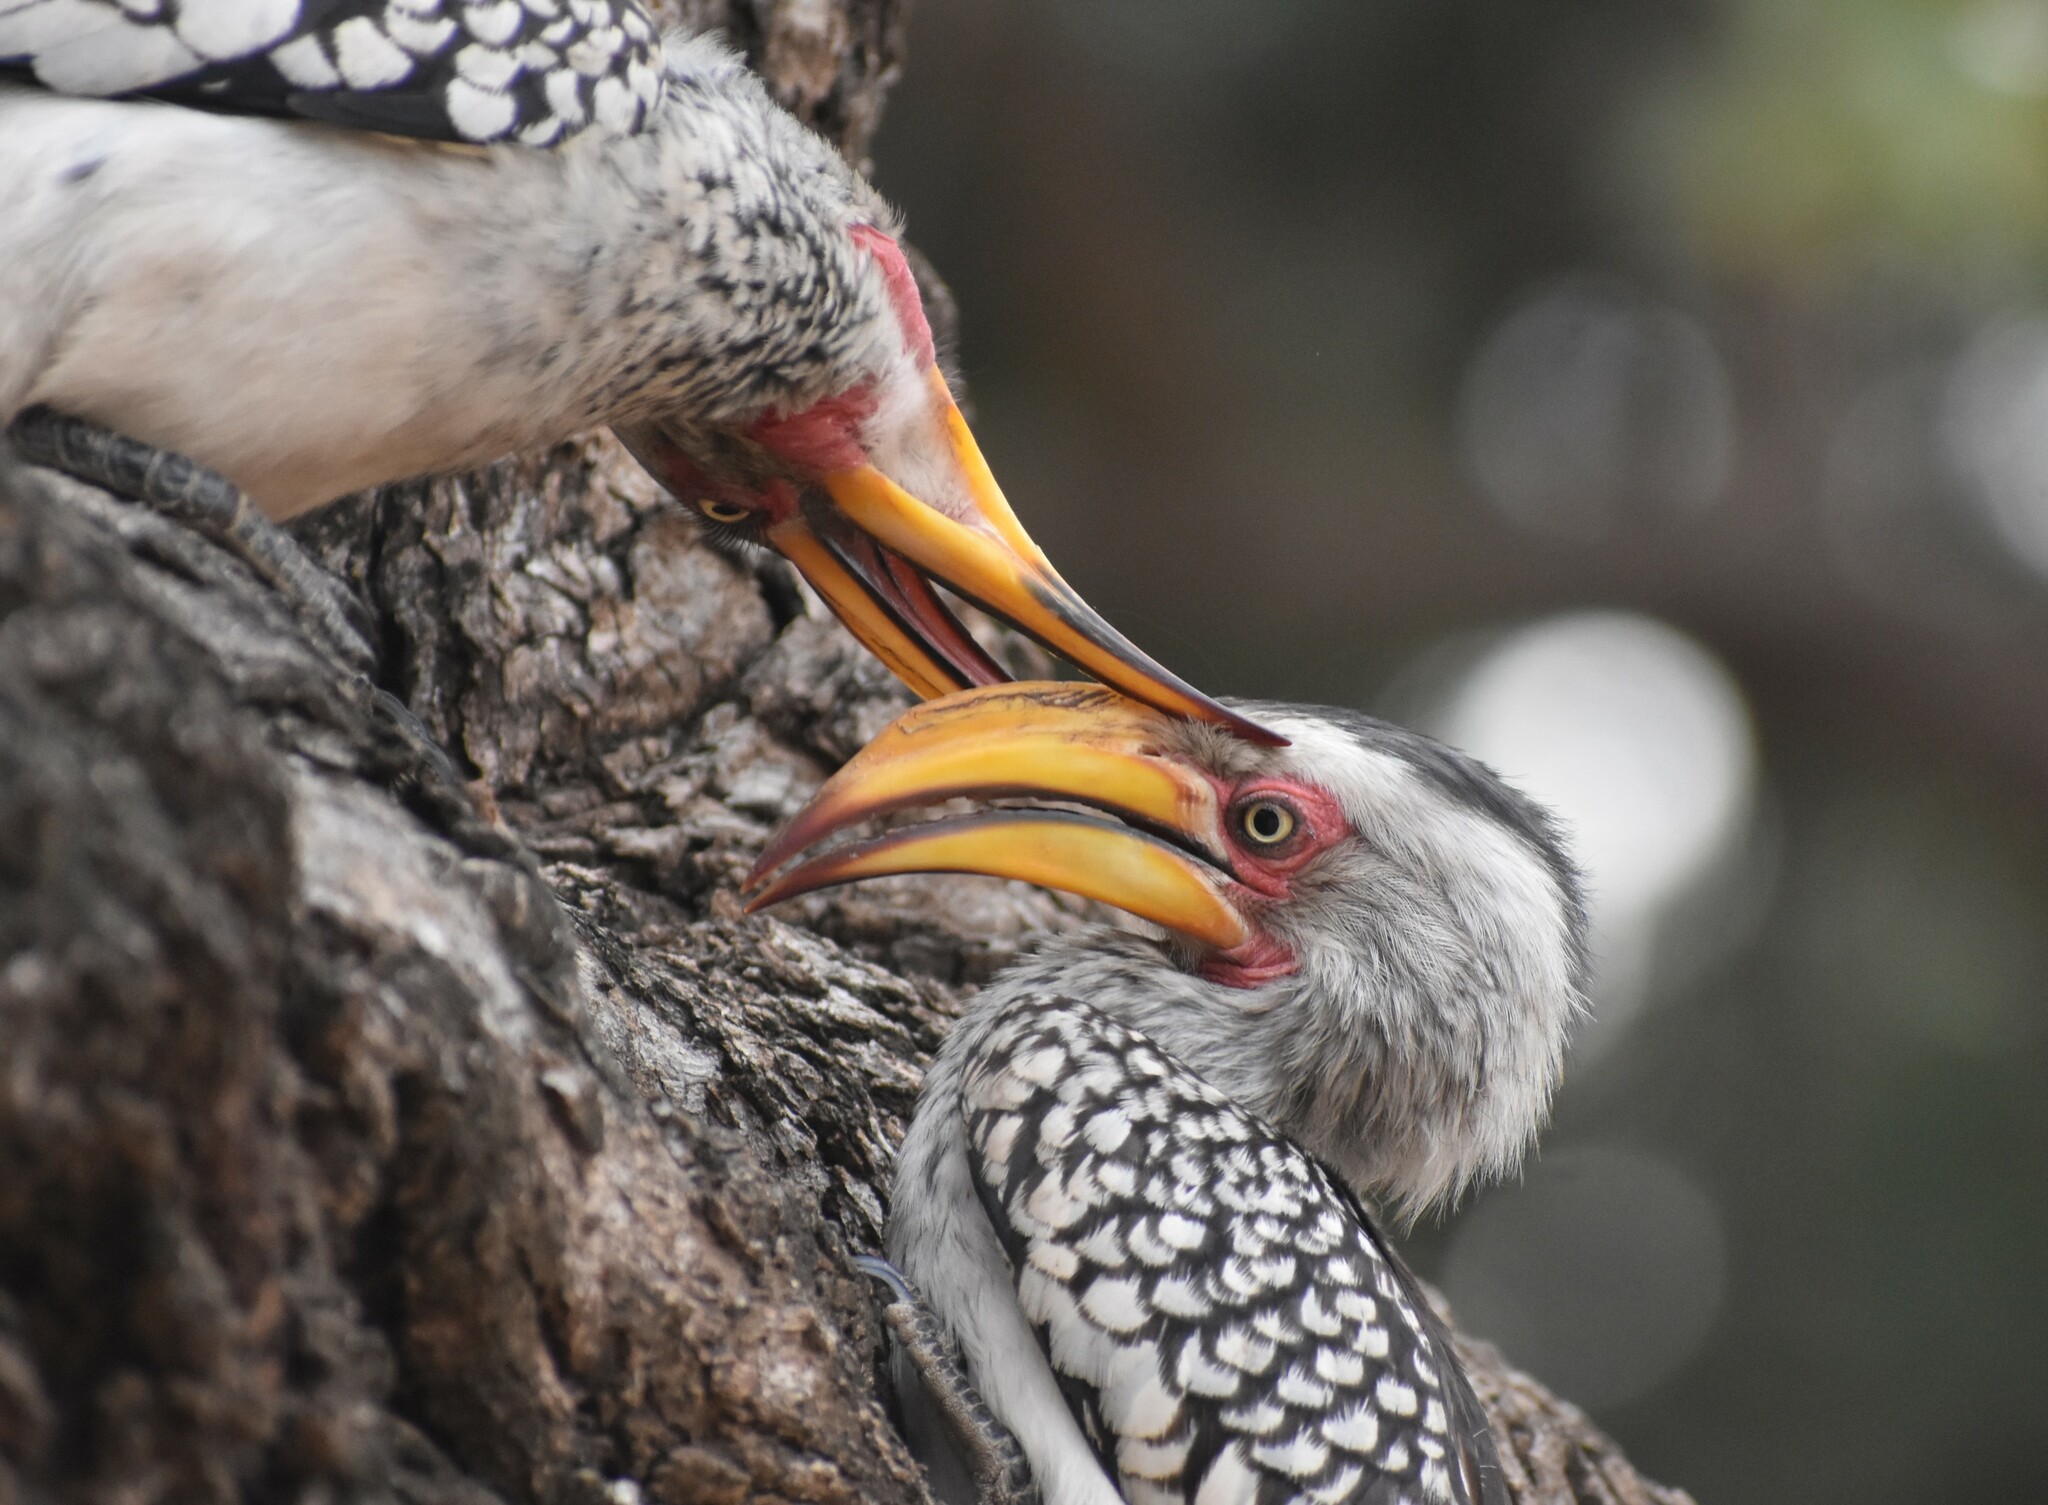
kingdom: Animalia
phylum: Chordata
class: Aves
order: Bucerotiformes
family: Bucerotidae
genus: Tockus
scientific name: Tockus leucomelas
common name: Southern yellow-billed hornbill
